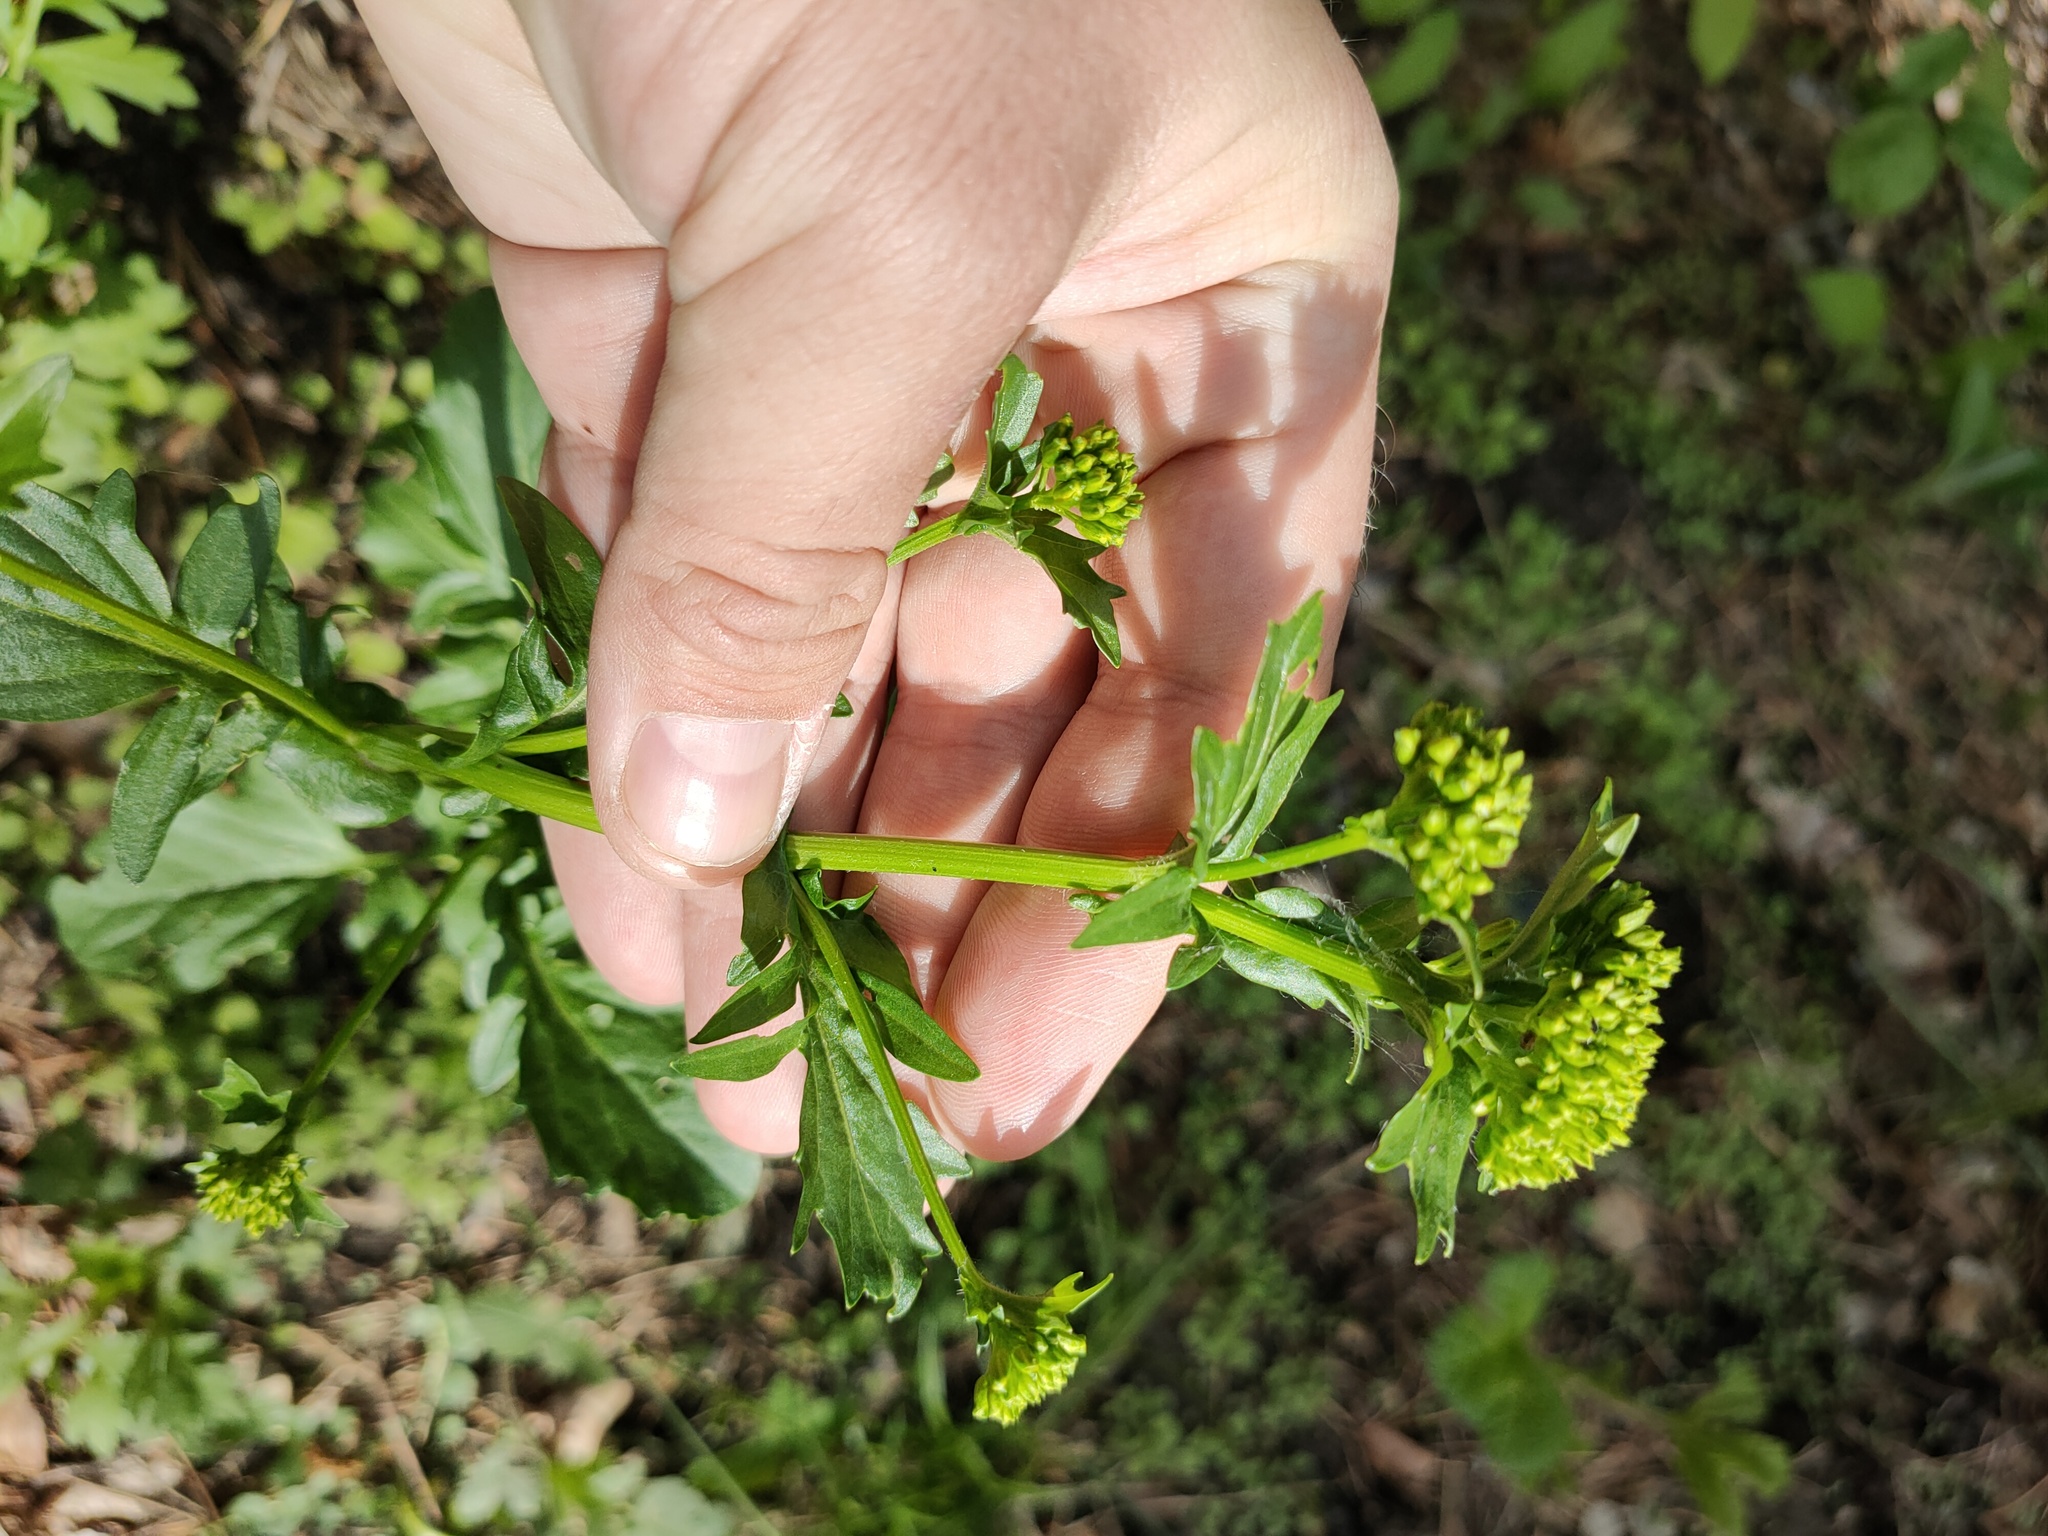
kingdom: Plantae
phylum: Tracheophyta
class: Magnoliopsida
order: Brassicales
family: Brassicaceae
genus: Barbarea
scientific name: Barbarea vulgaris
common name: Cressy-greens
